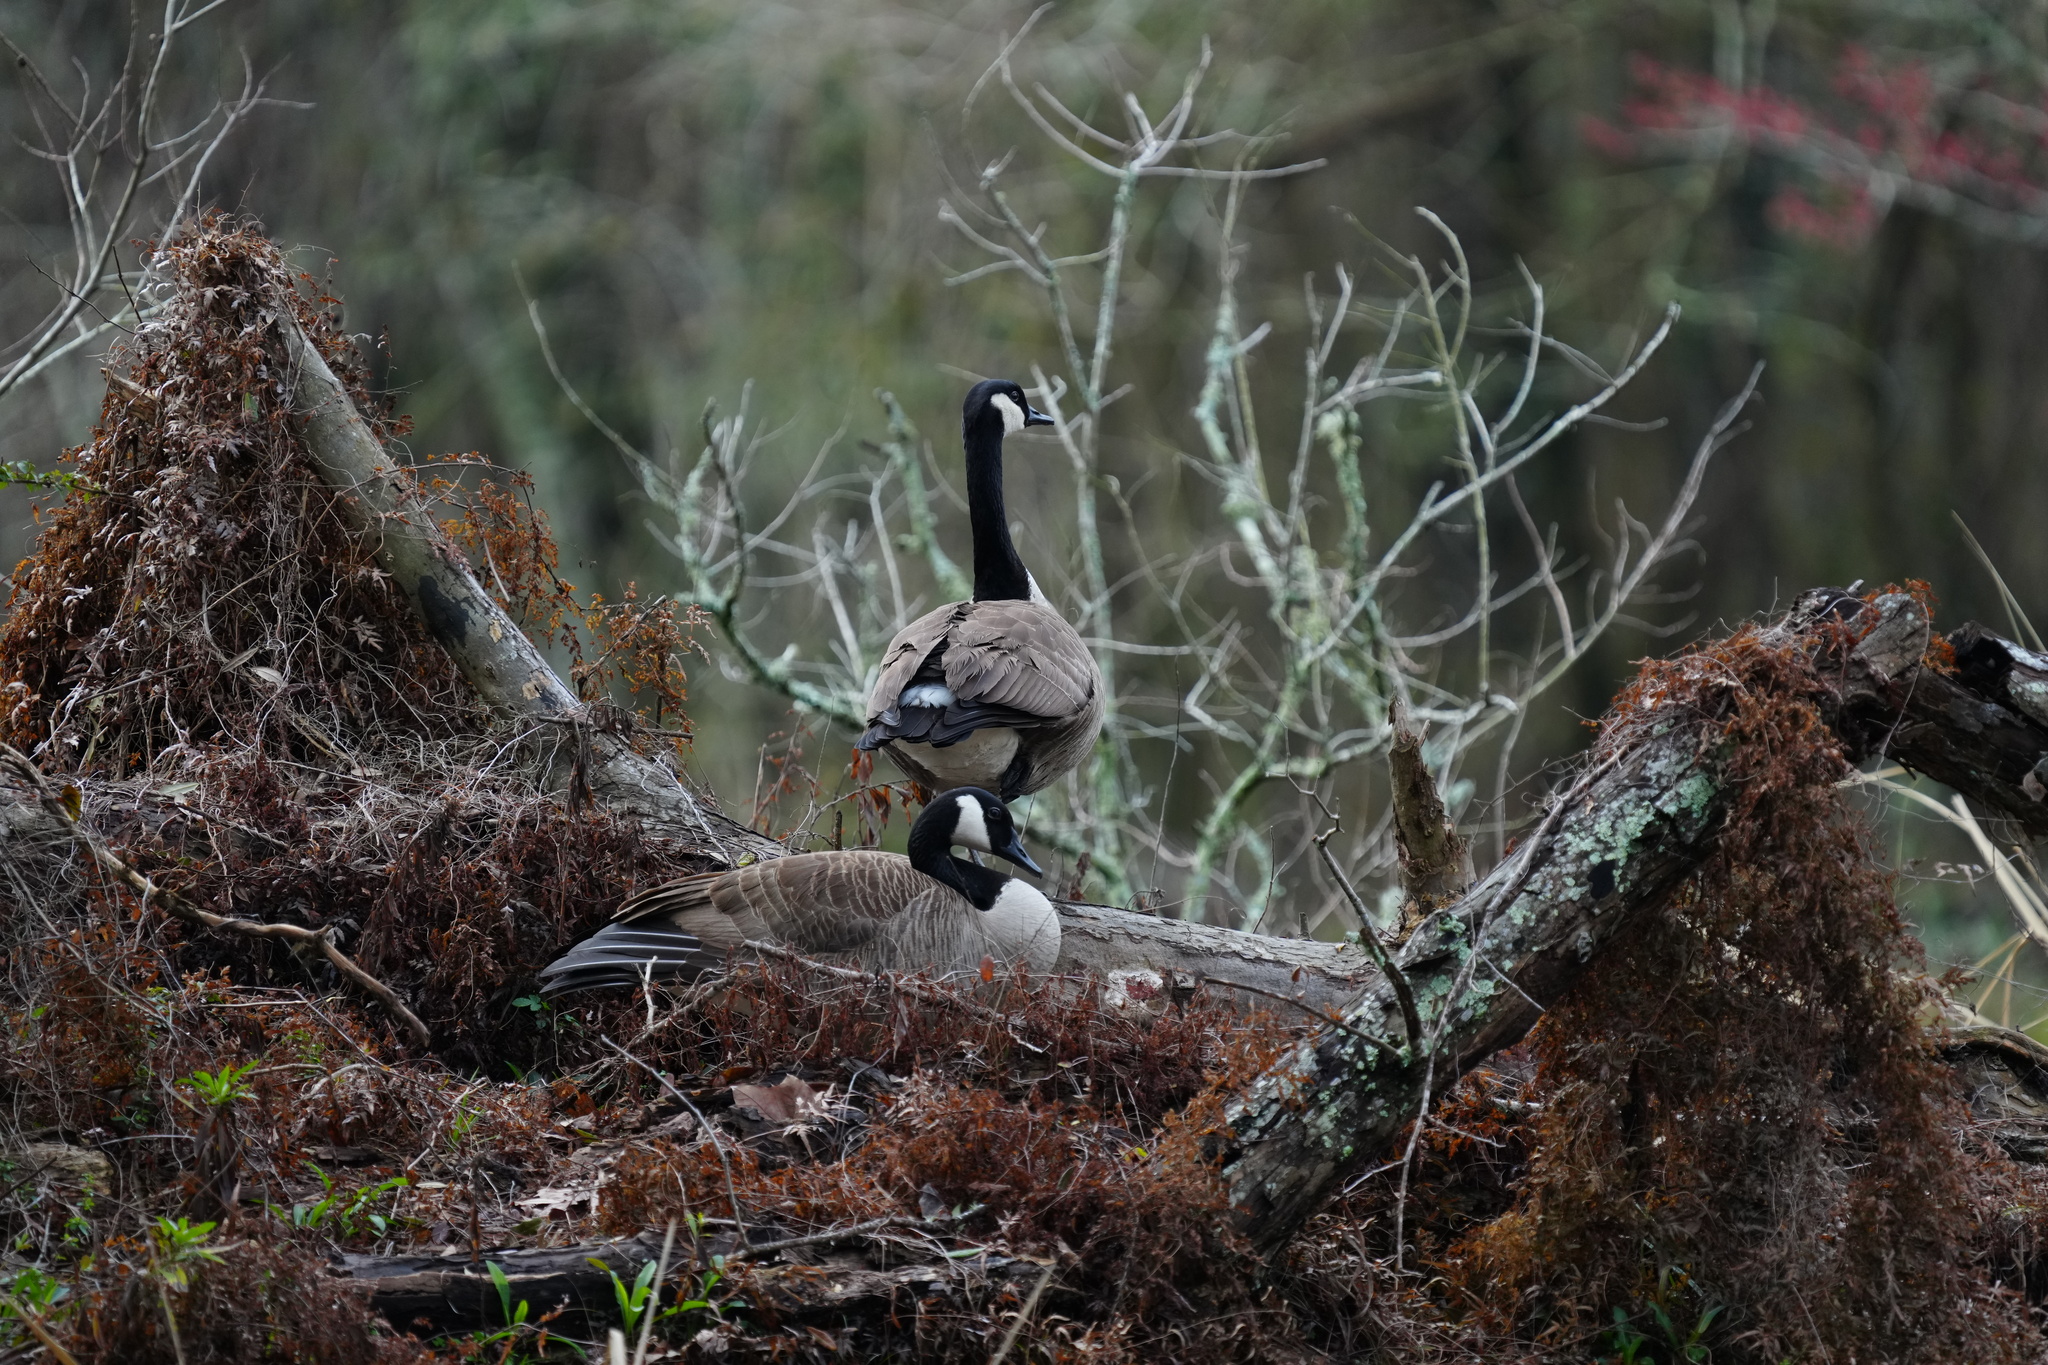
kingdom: Animalia
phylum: Chordata
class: Aves
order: Anseriformes
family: Anatidae
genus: Branta
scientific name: Branta canadensis
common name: Canada goose
